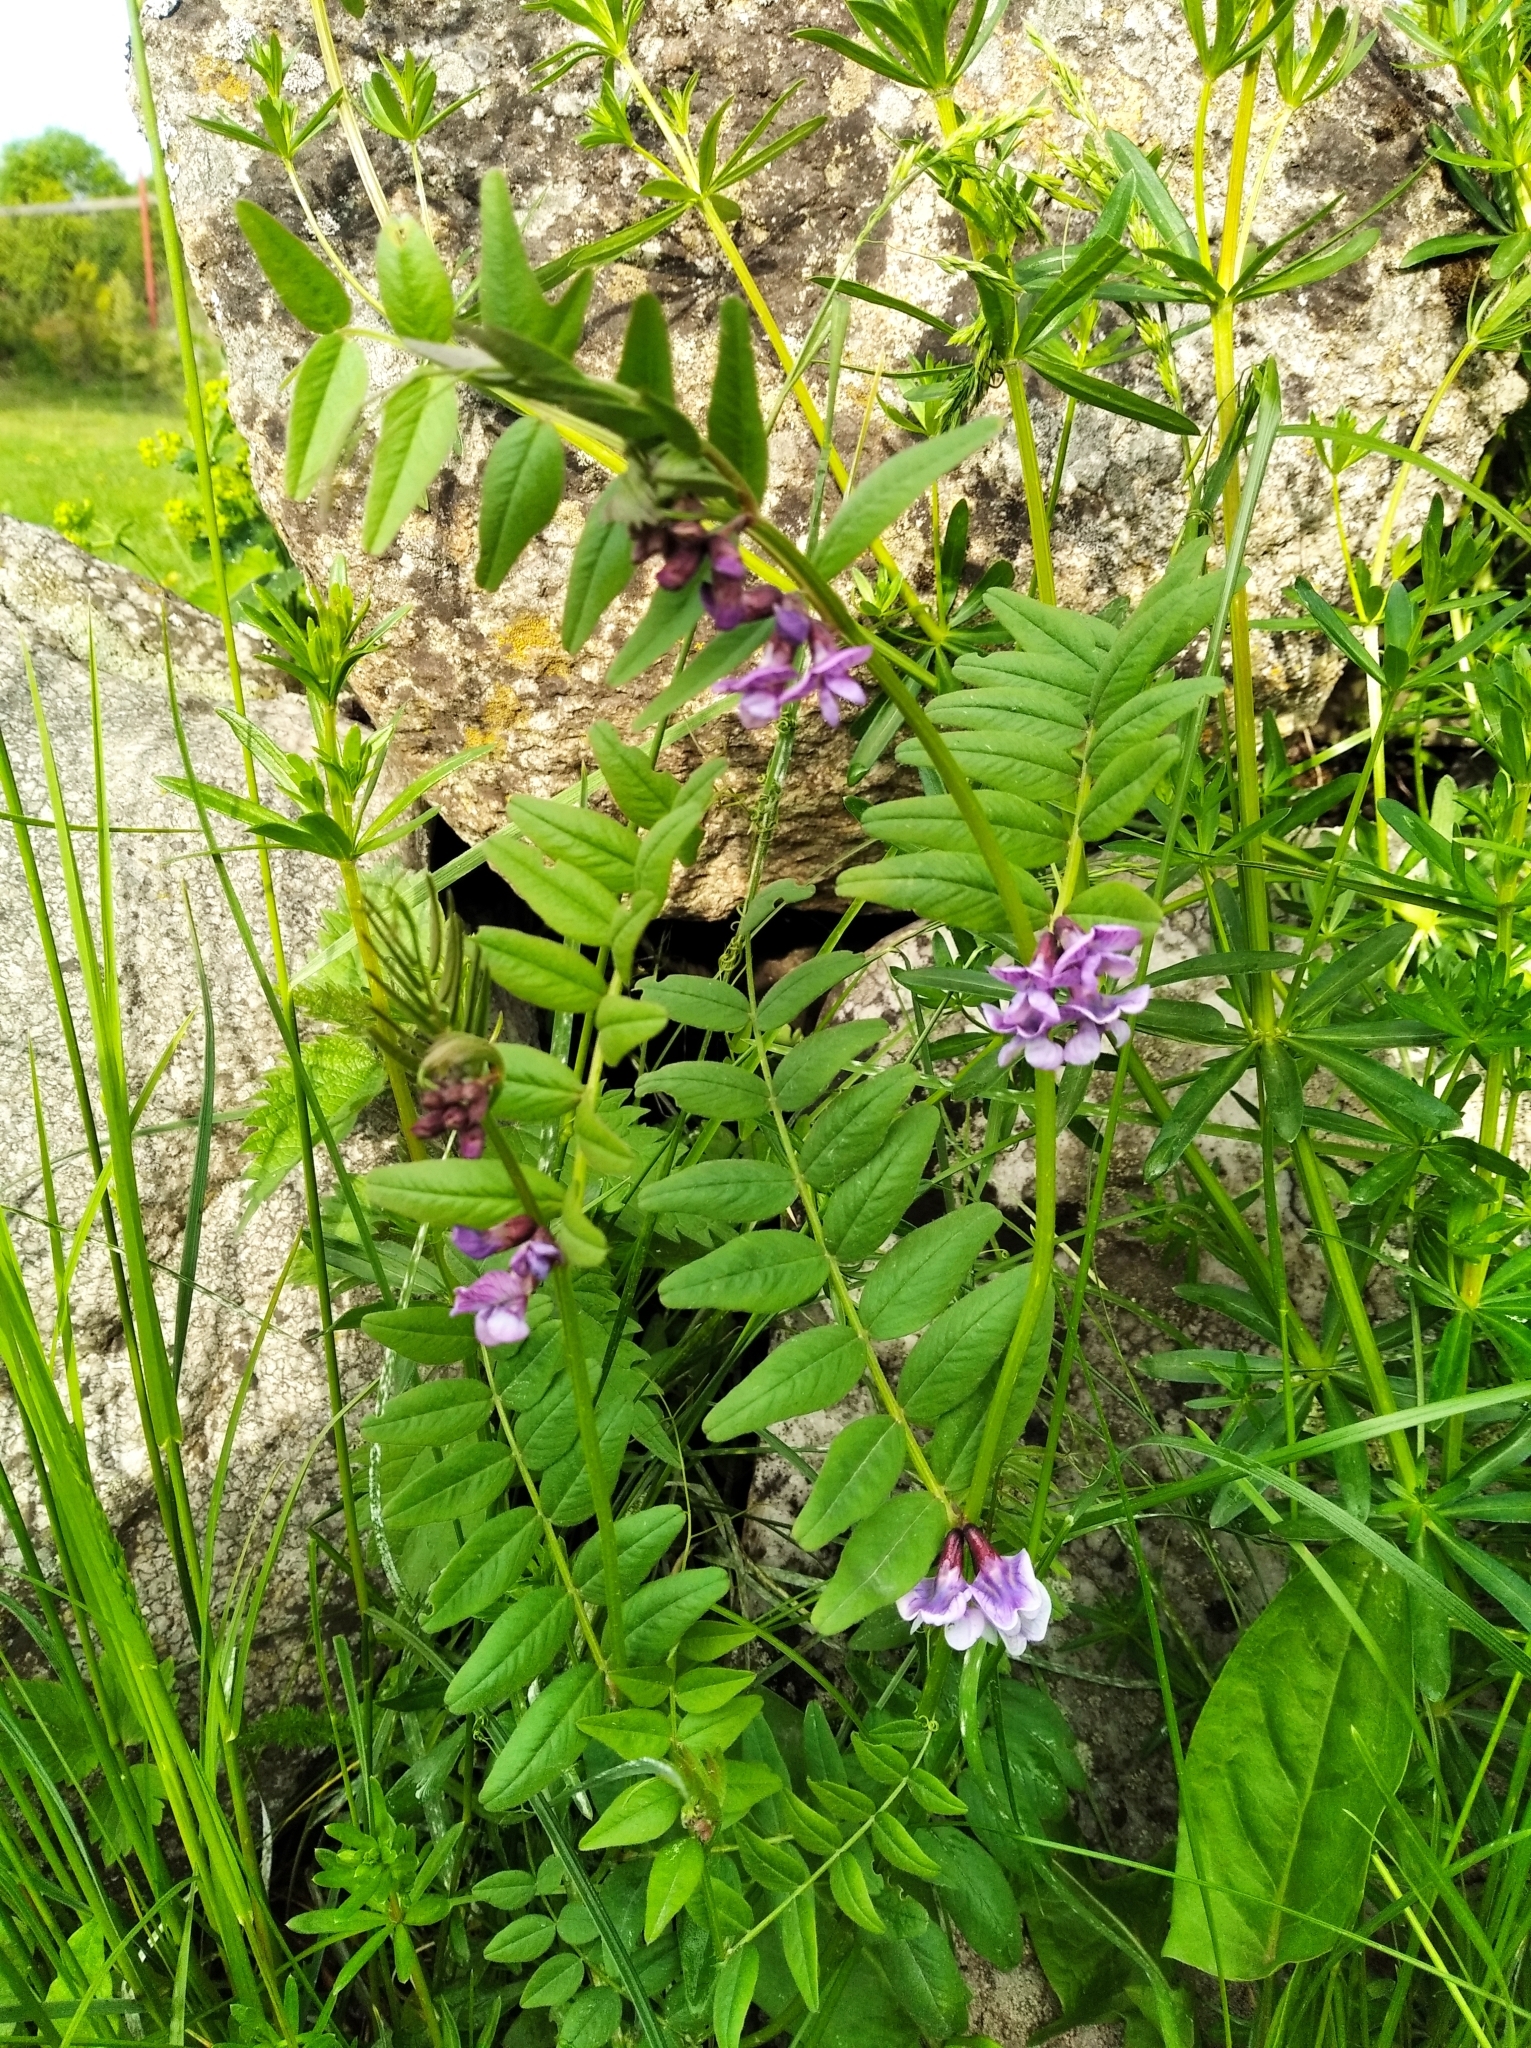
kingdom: Plantae
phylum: Tracheophyta
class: Magnoliopsida
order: Fabales
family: Fabaceae
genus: Vicia
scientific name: Vicia sepium
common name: Bush vetch
